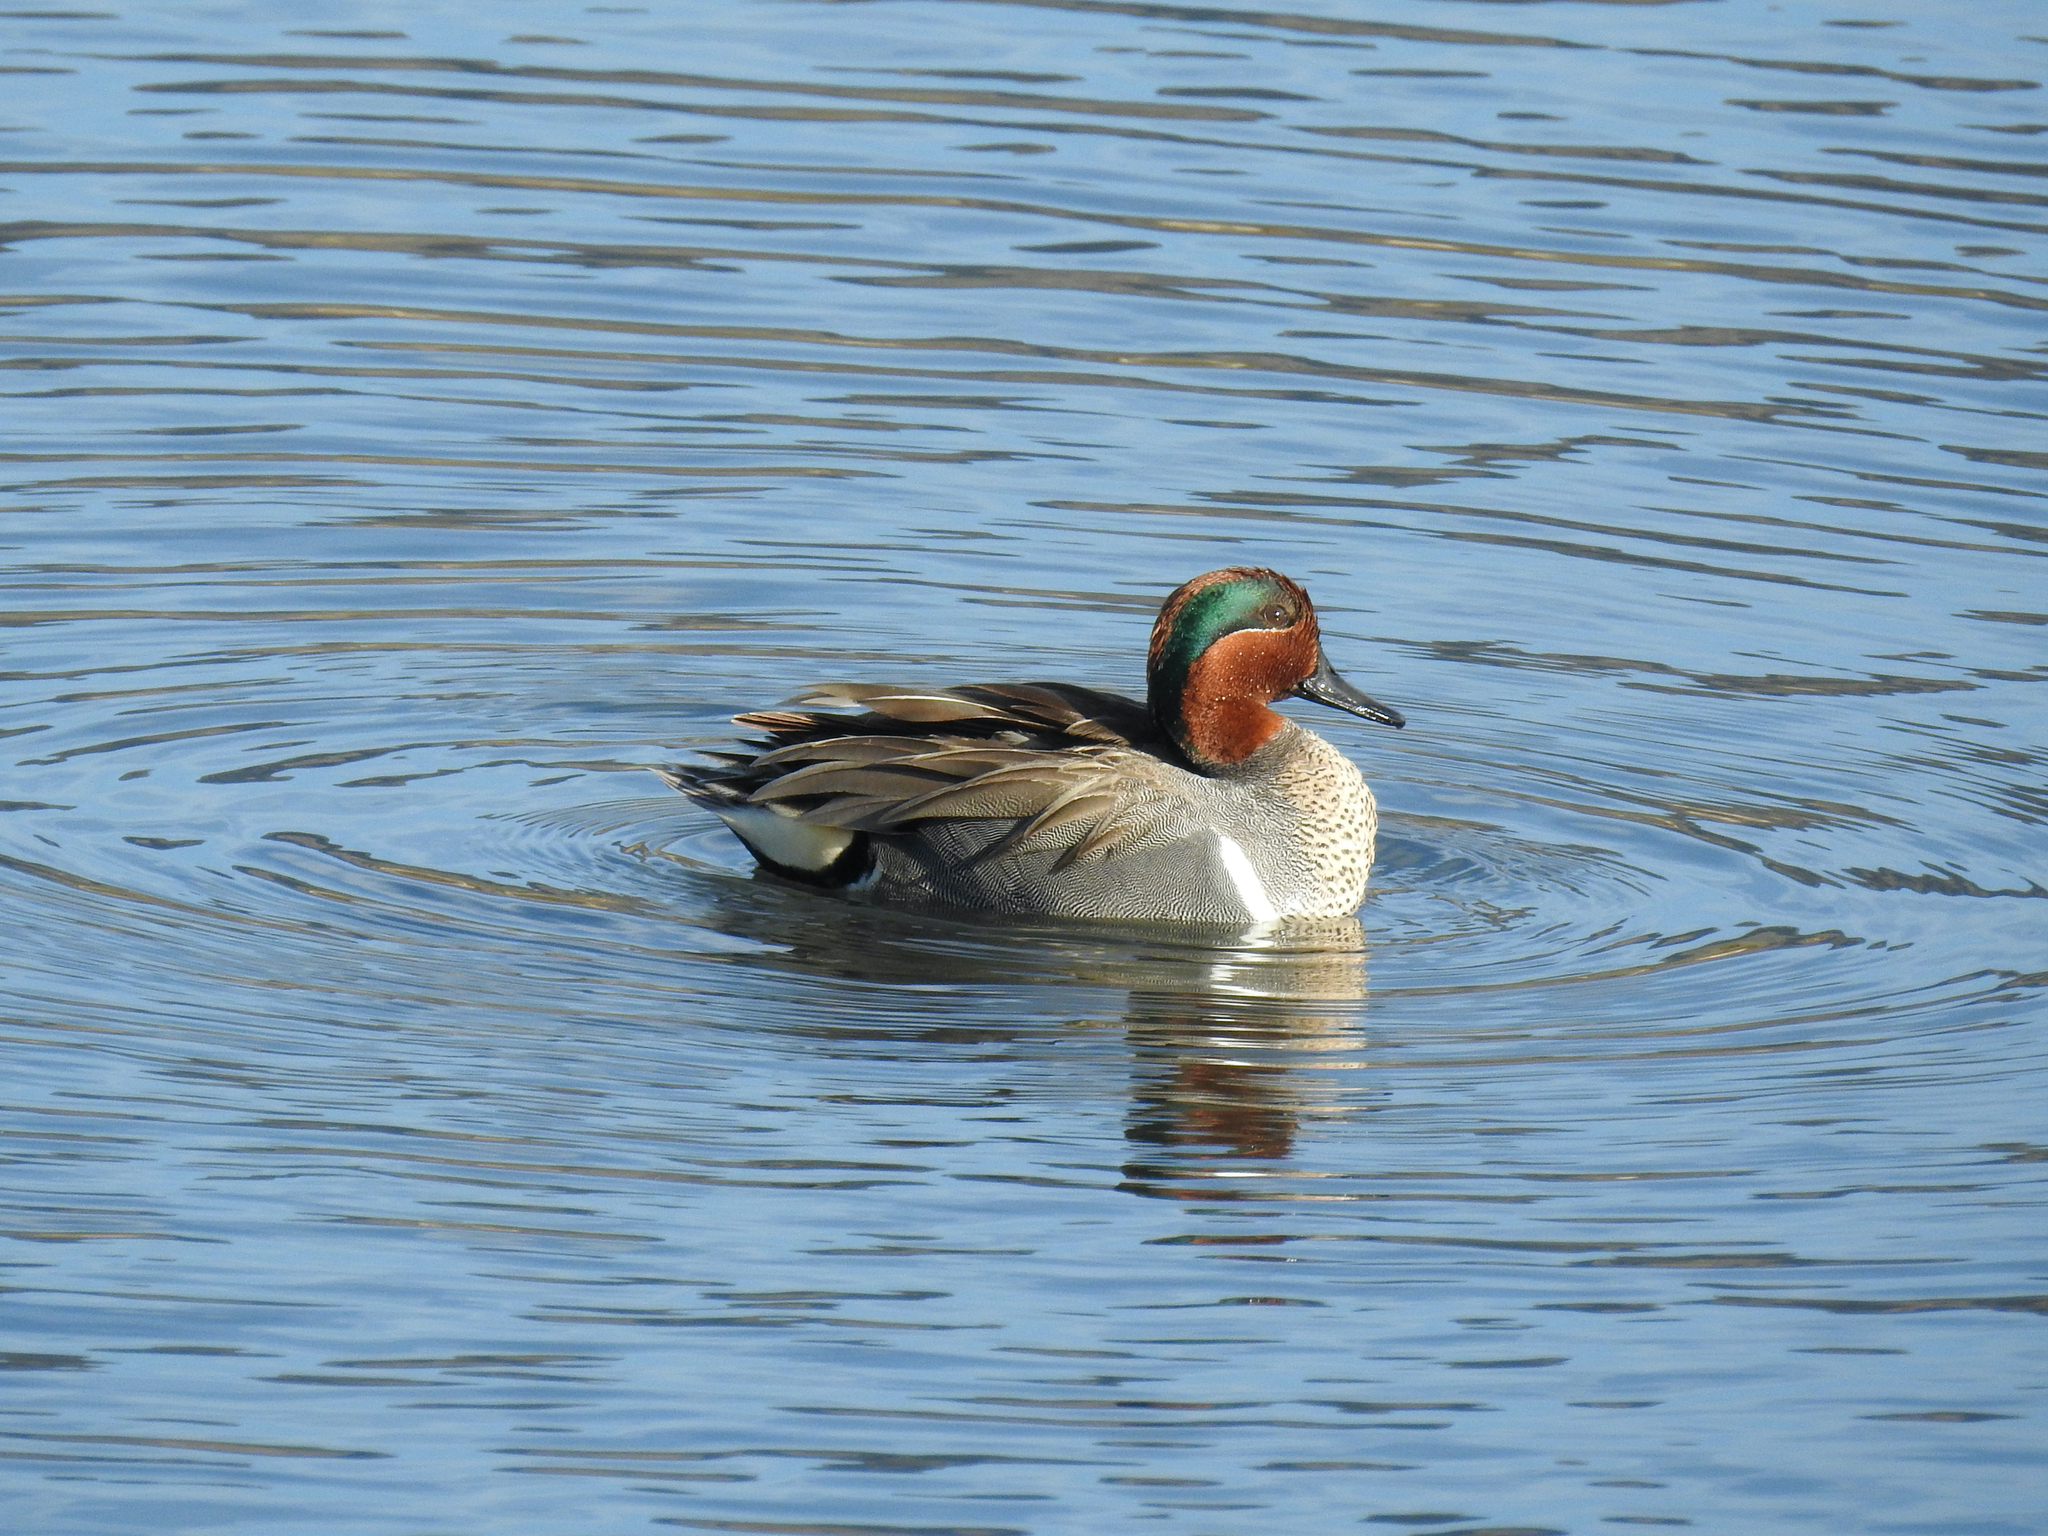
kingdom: Animalia
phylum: Chordata
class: Aves
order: Anseriformes
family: Anatidae
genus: Anas
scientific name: Anas crecca
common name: Eurasian teal
